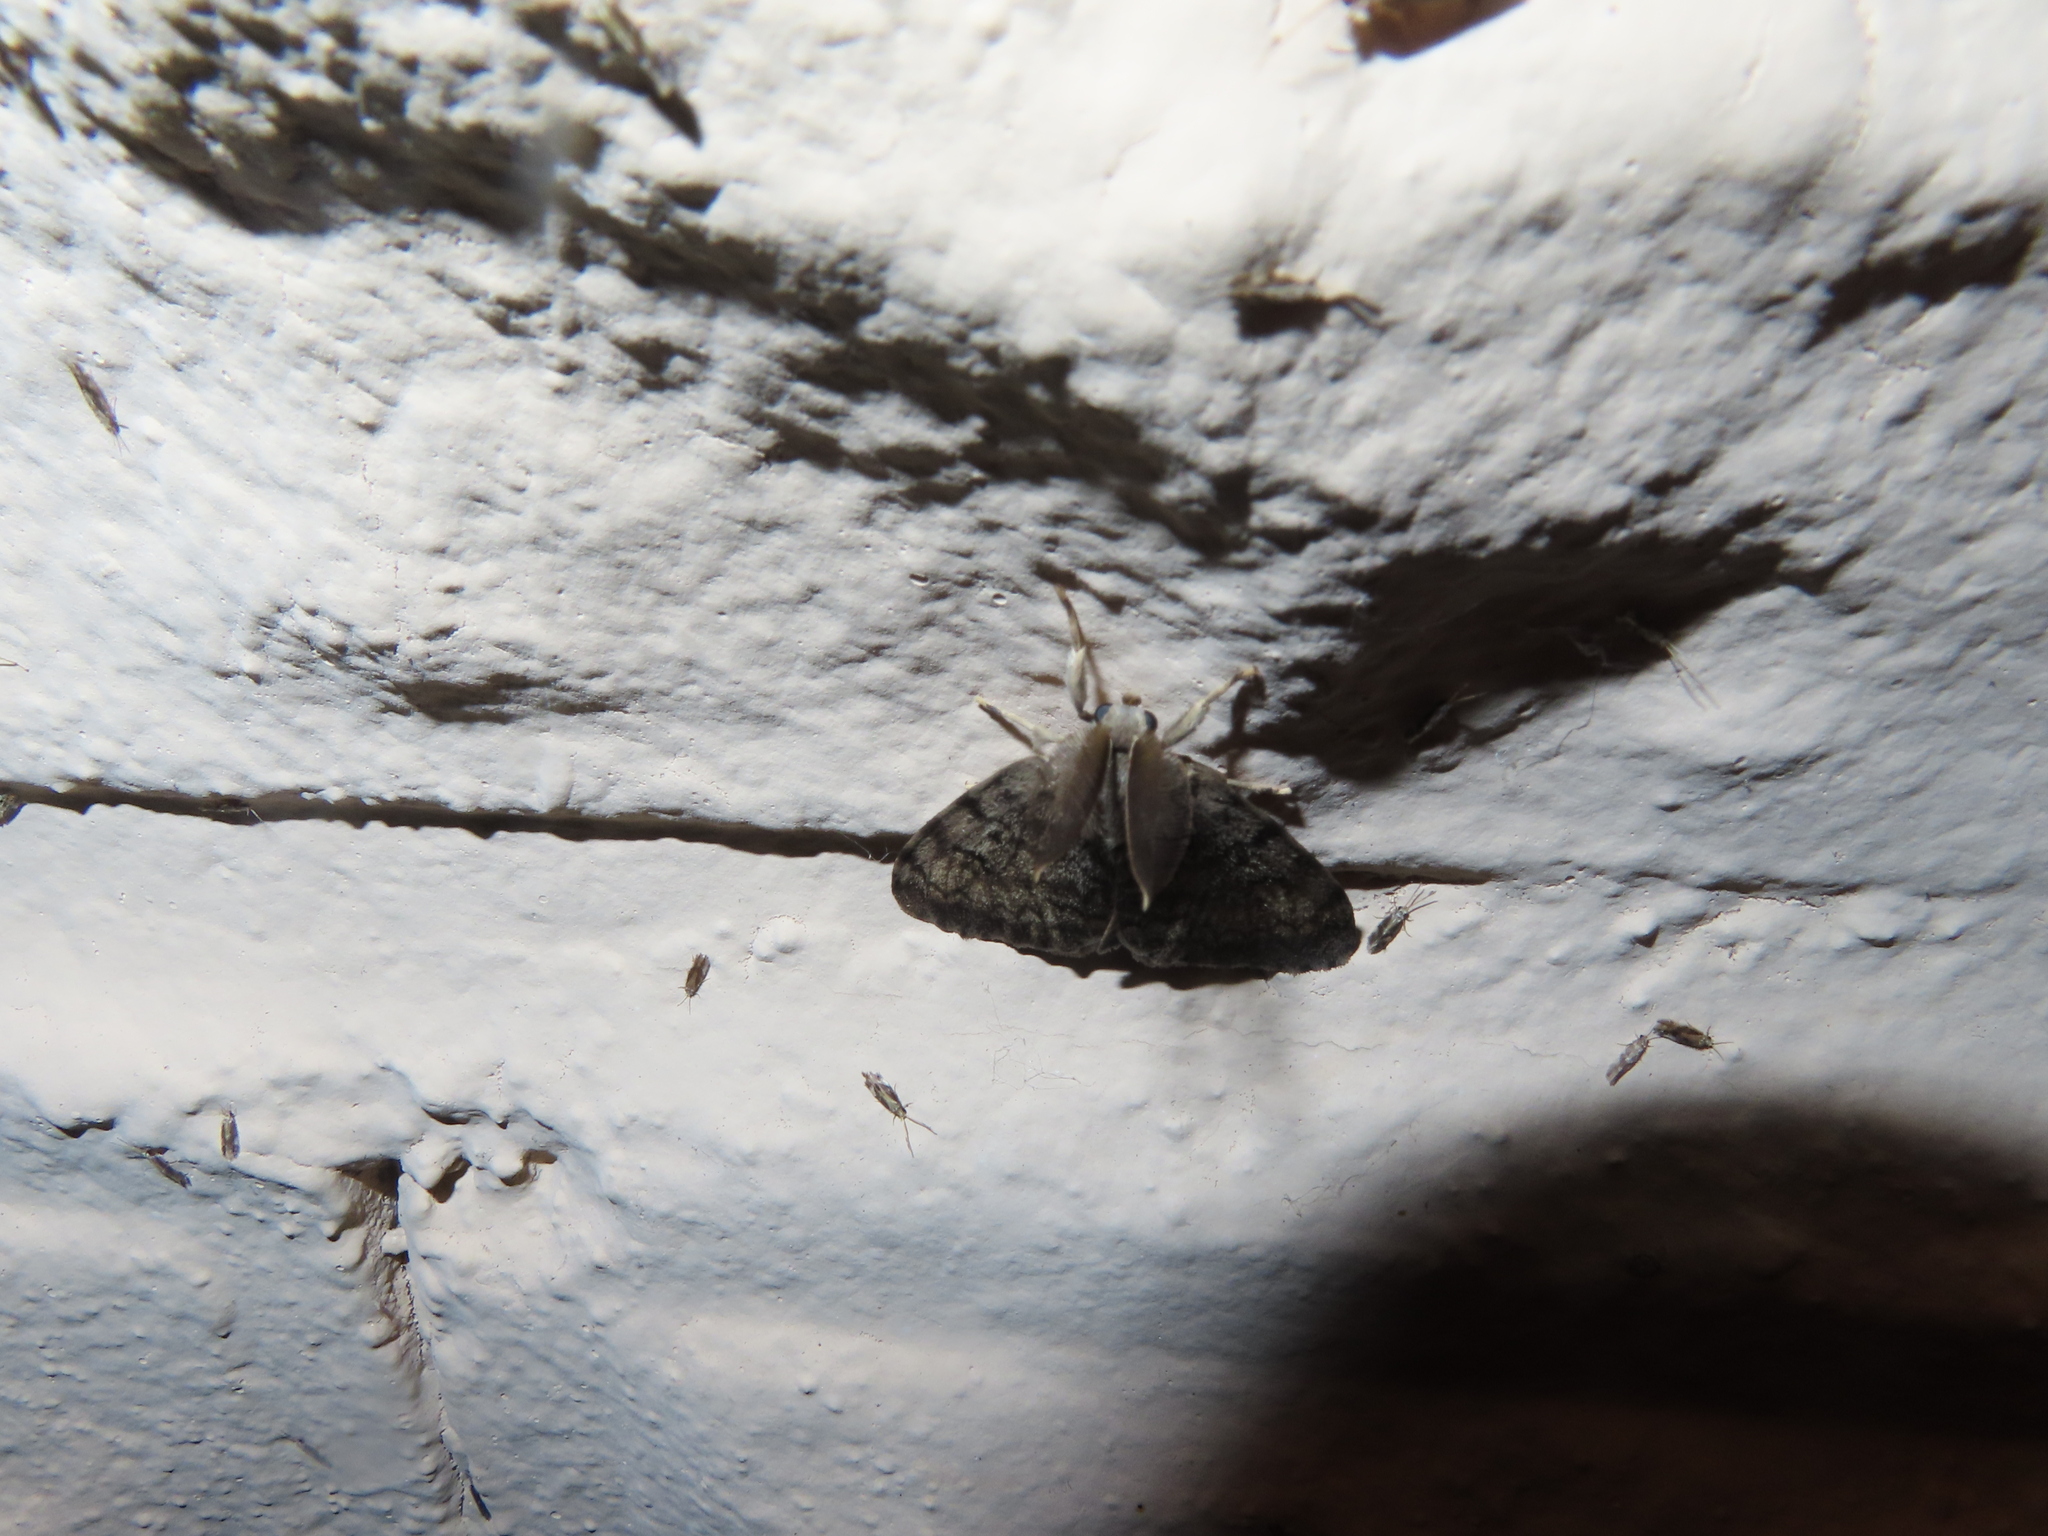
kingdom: Animalia
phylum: Arthropoda
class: Insecta
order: Lepidoptera
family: Erebidae
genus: Lymantria
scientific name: Lymantria dispar
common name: Gypsy moth
